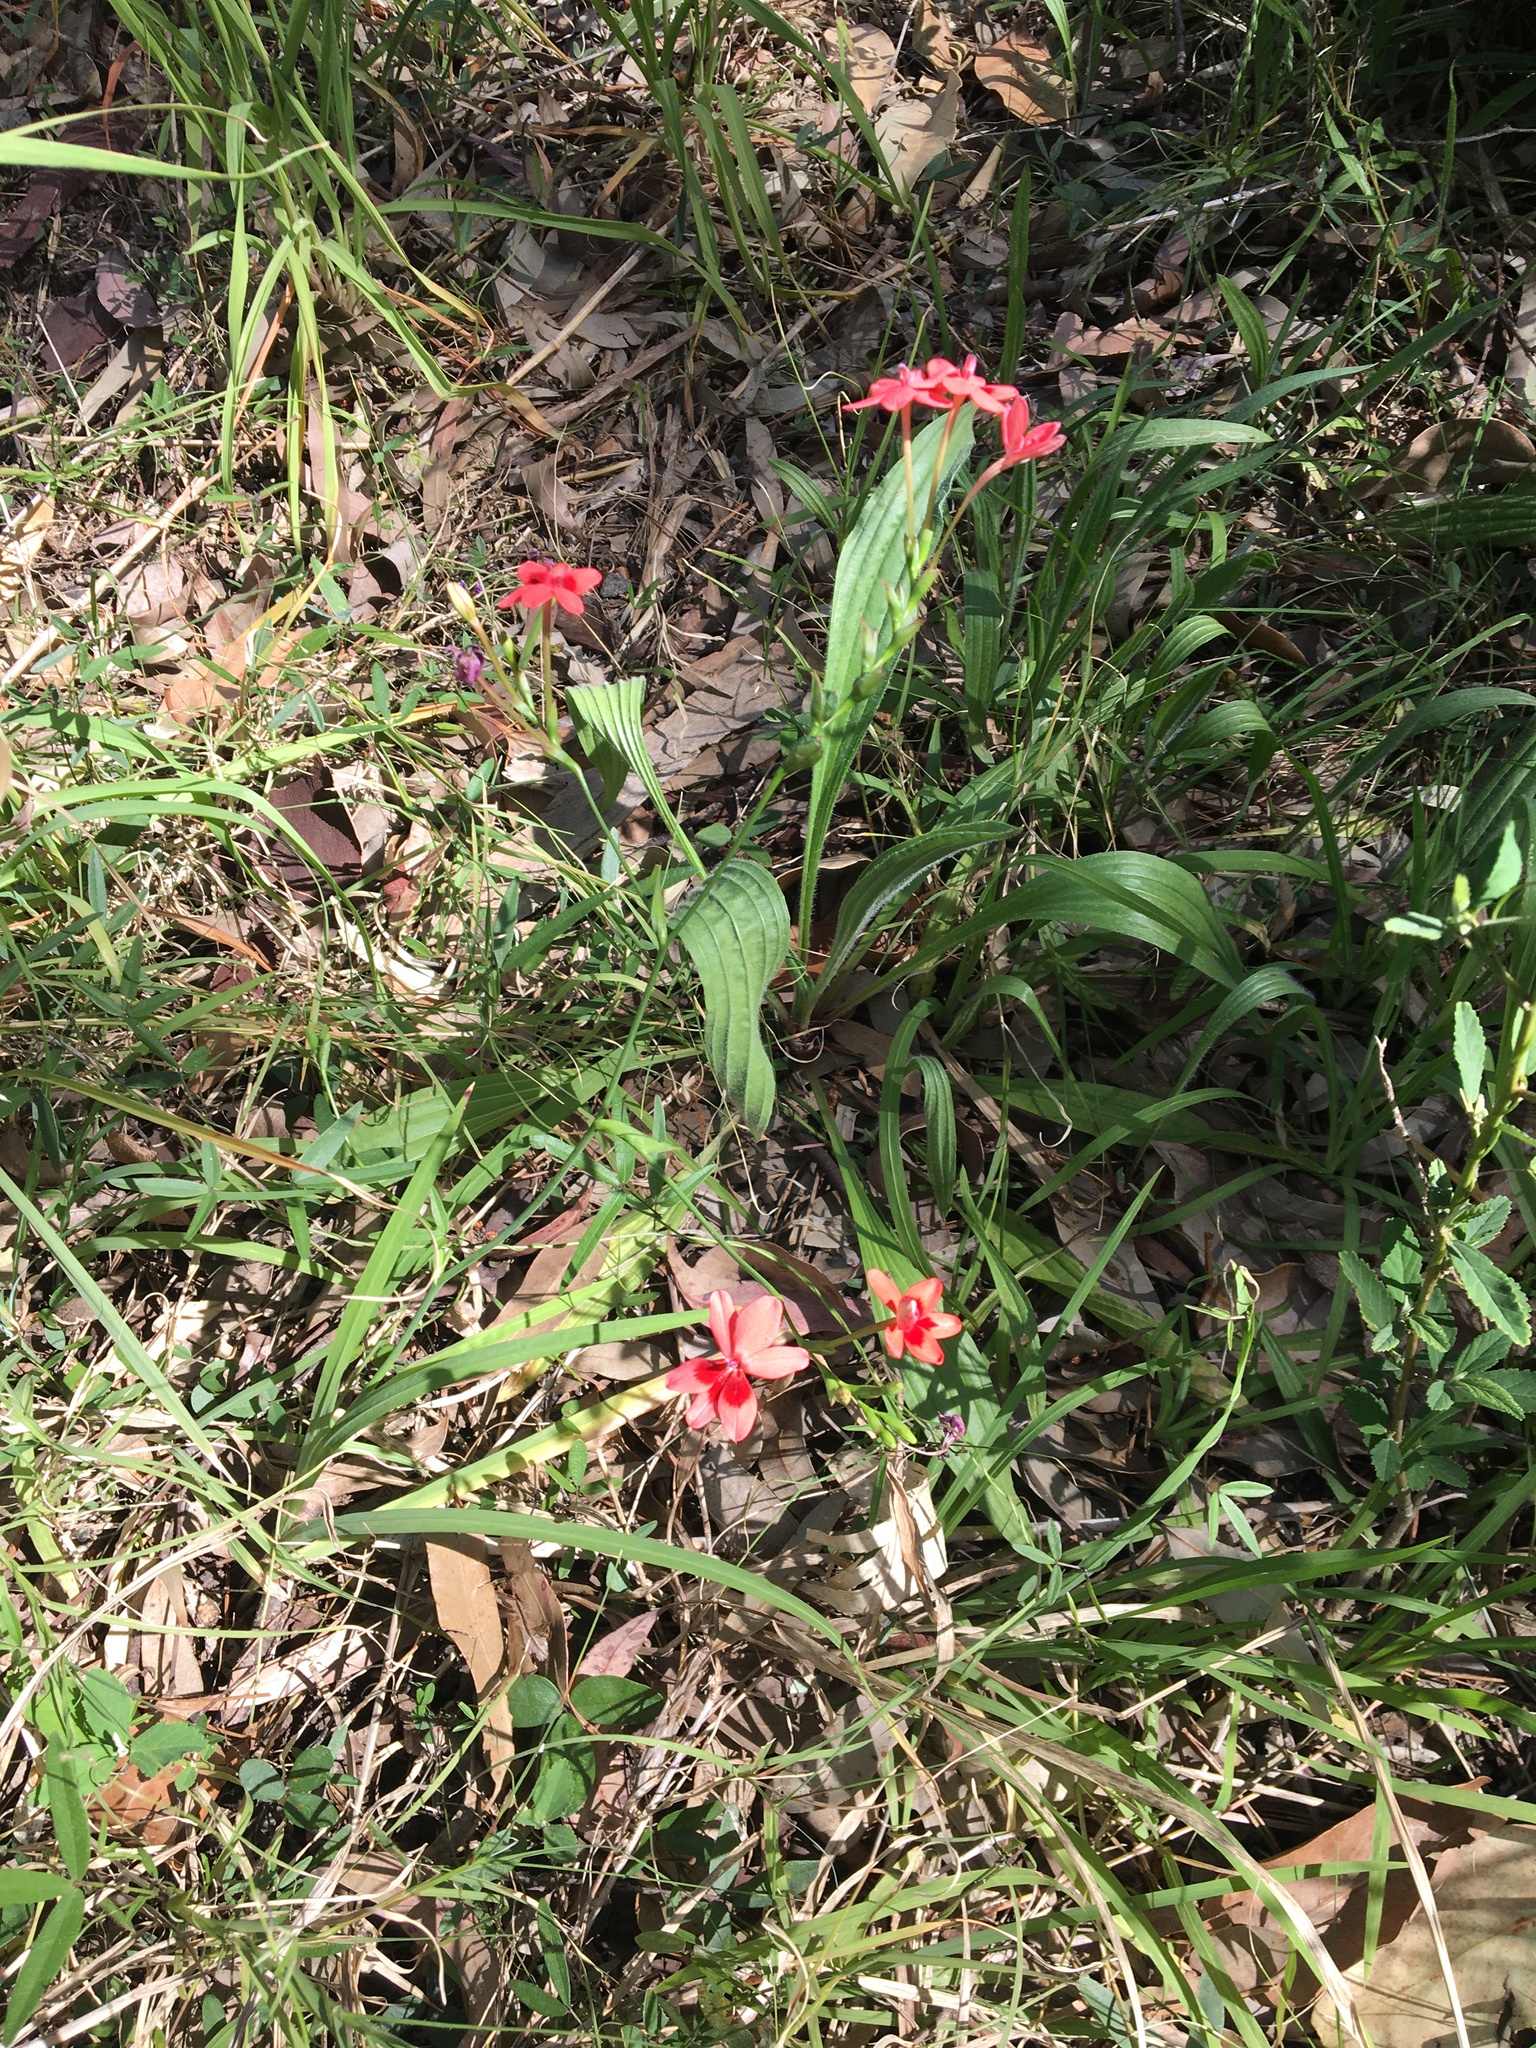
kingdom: Plantae
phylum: Tracheophyta
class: Liliopsida
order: Asparagales
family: Iridaceae
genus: Freesia
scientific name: Freesia laxa
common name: False freesia
